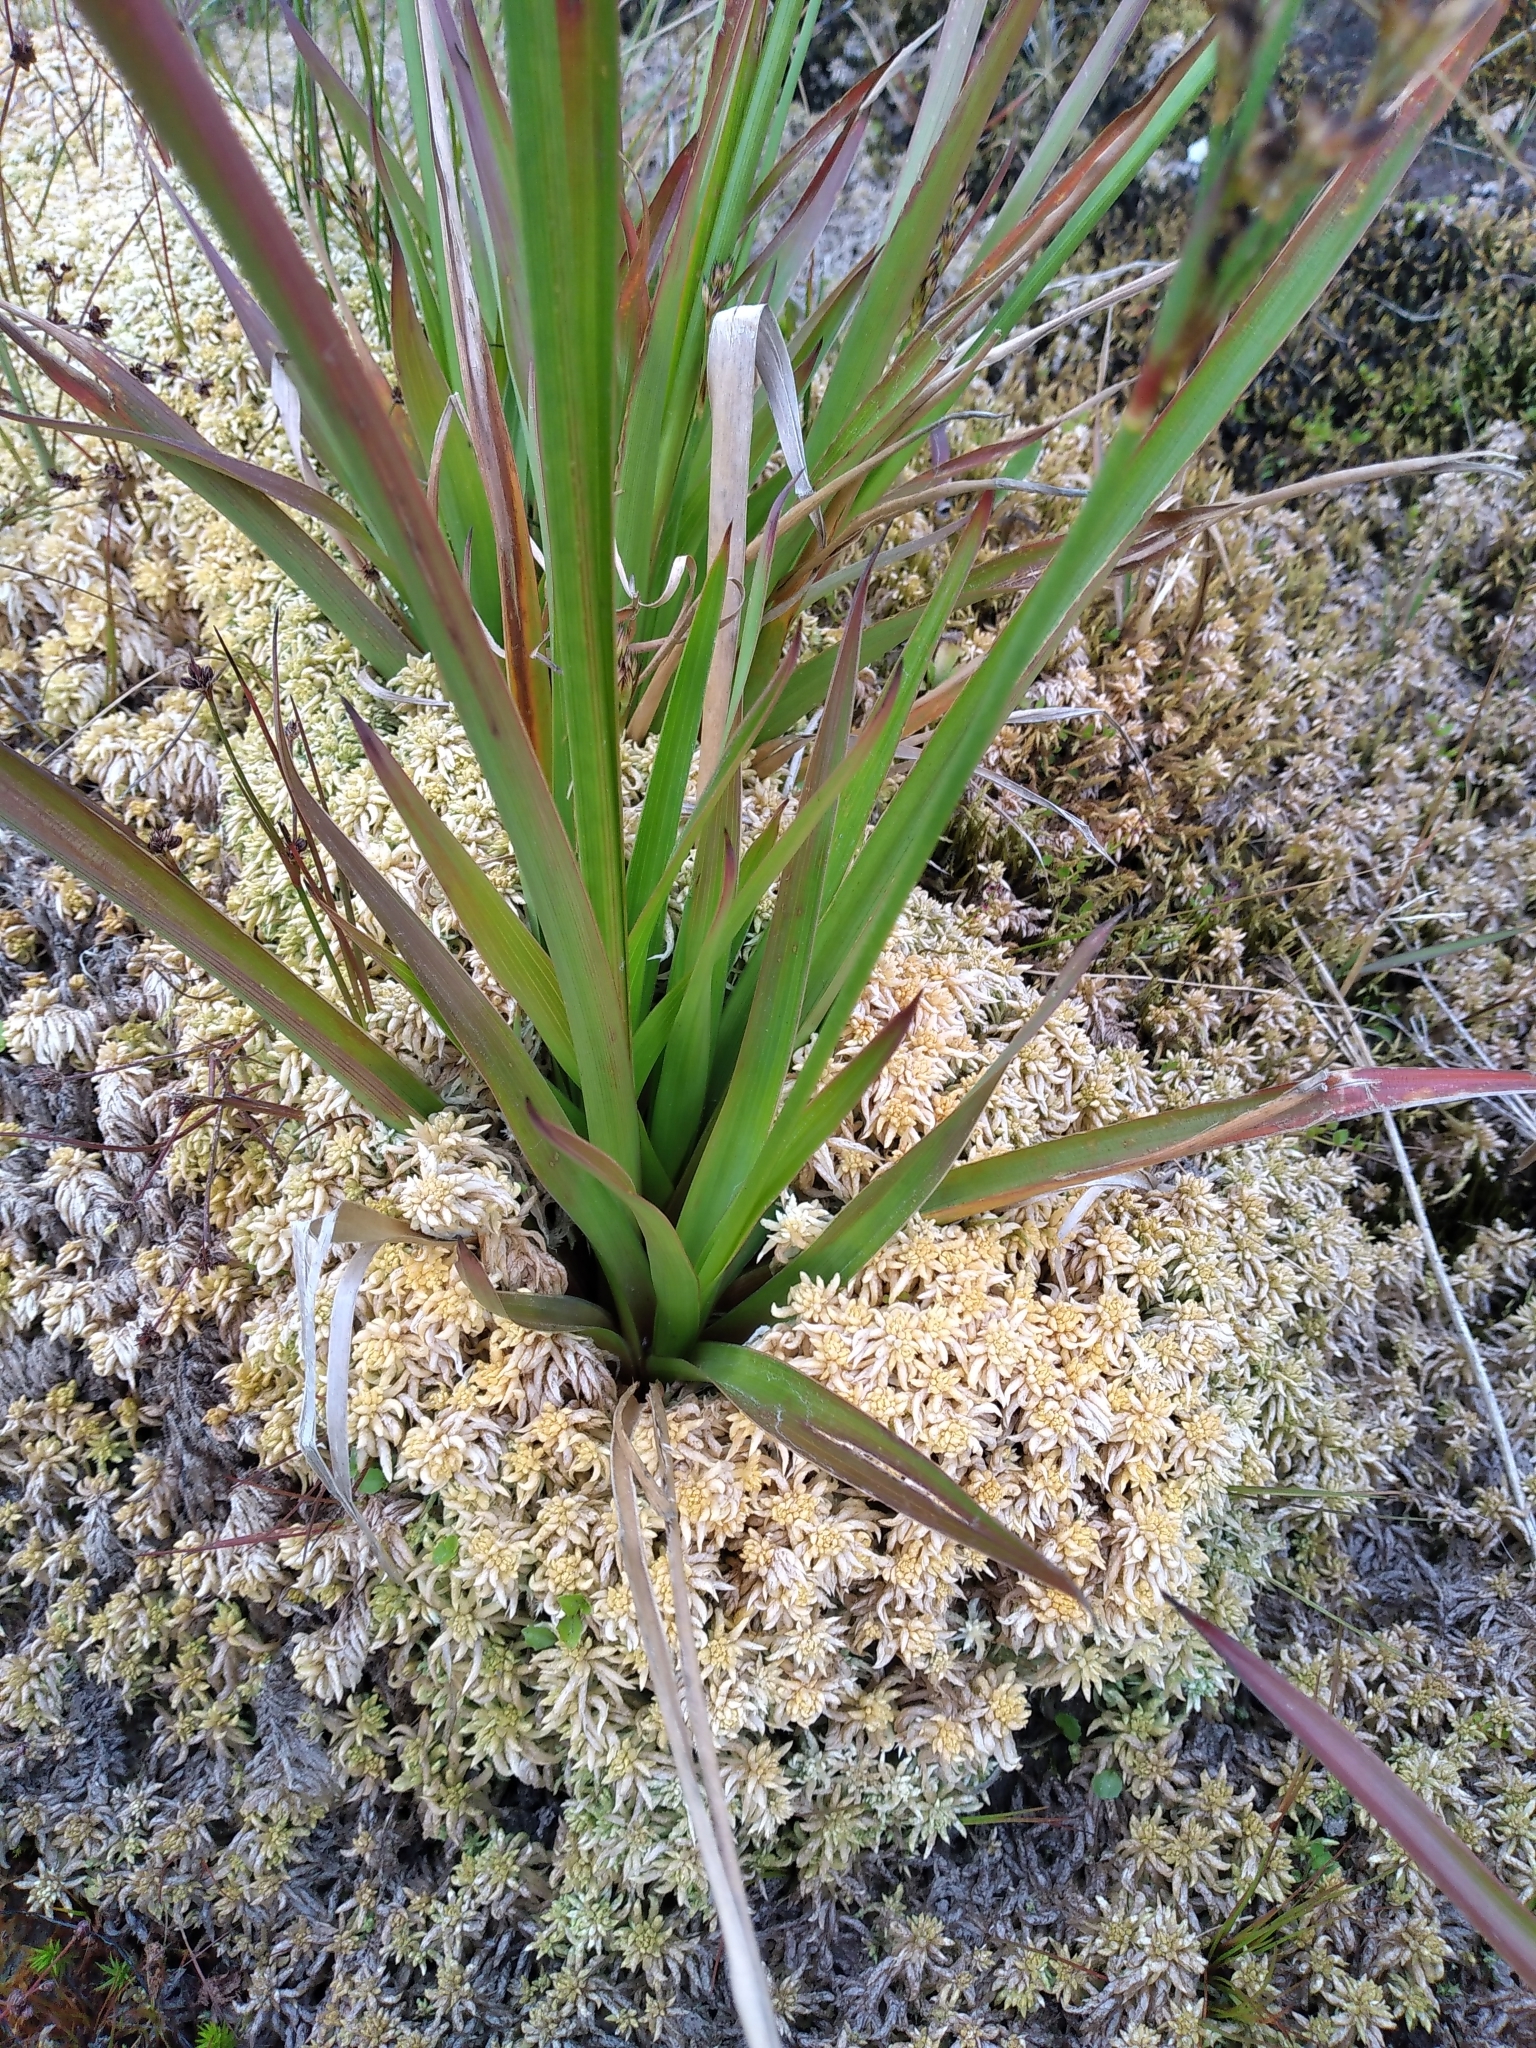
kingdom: Plantae
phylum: Tracheophyta
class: Liliopsida
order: Poales
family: Juncaceae
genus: Juncus
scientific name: Juncus lomatophyllus
